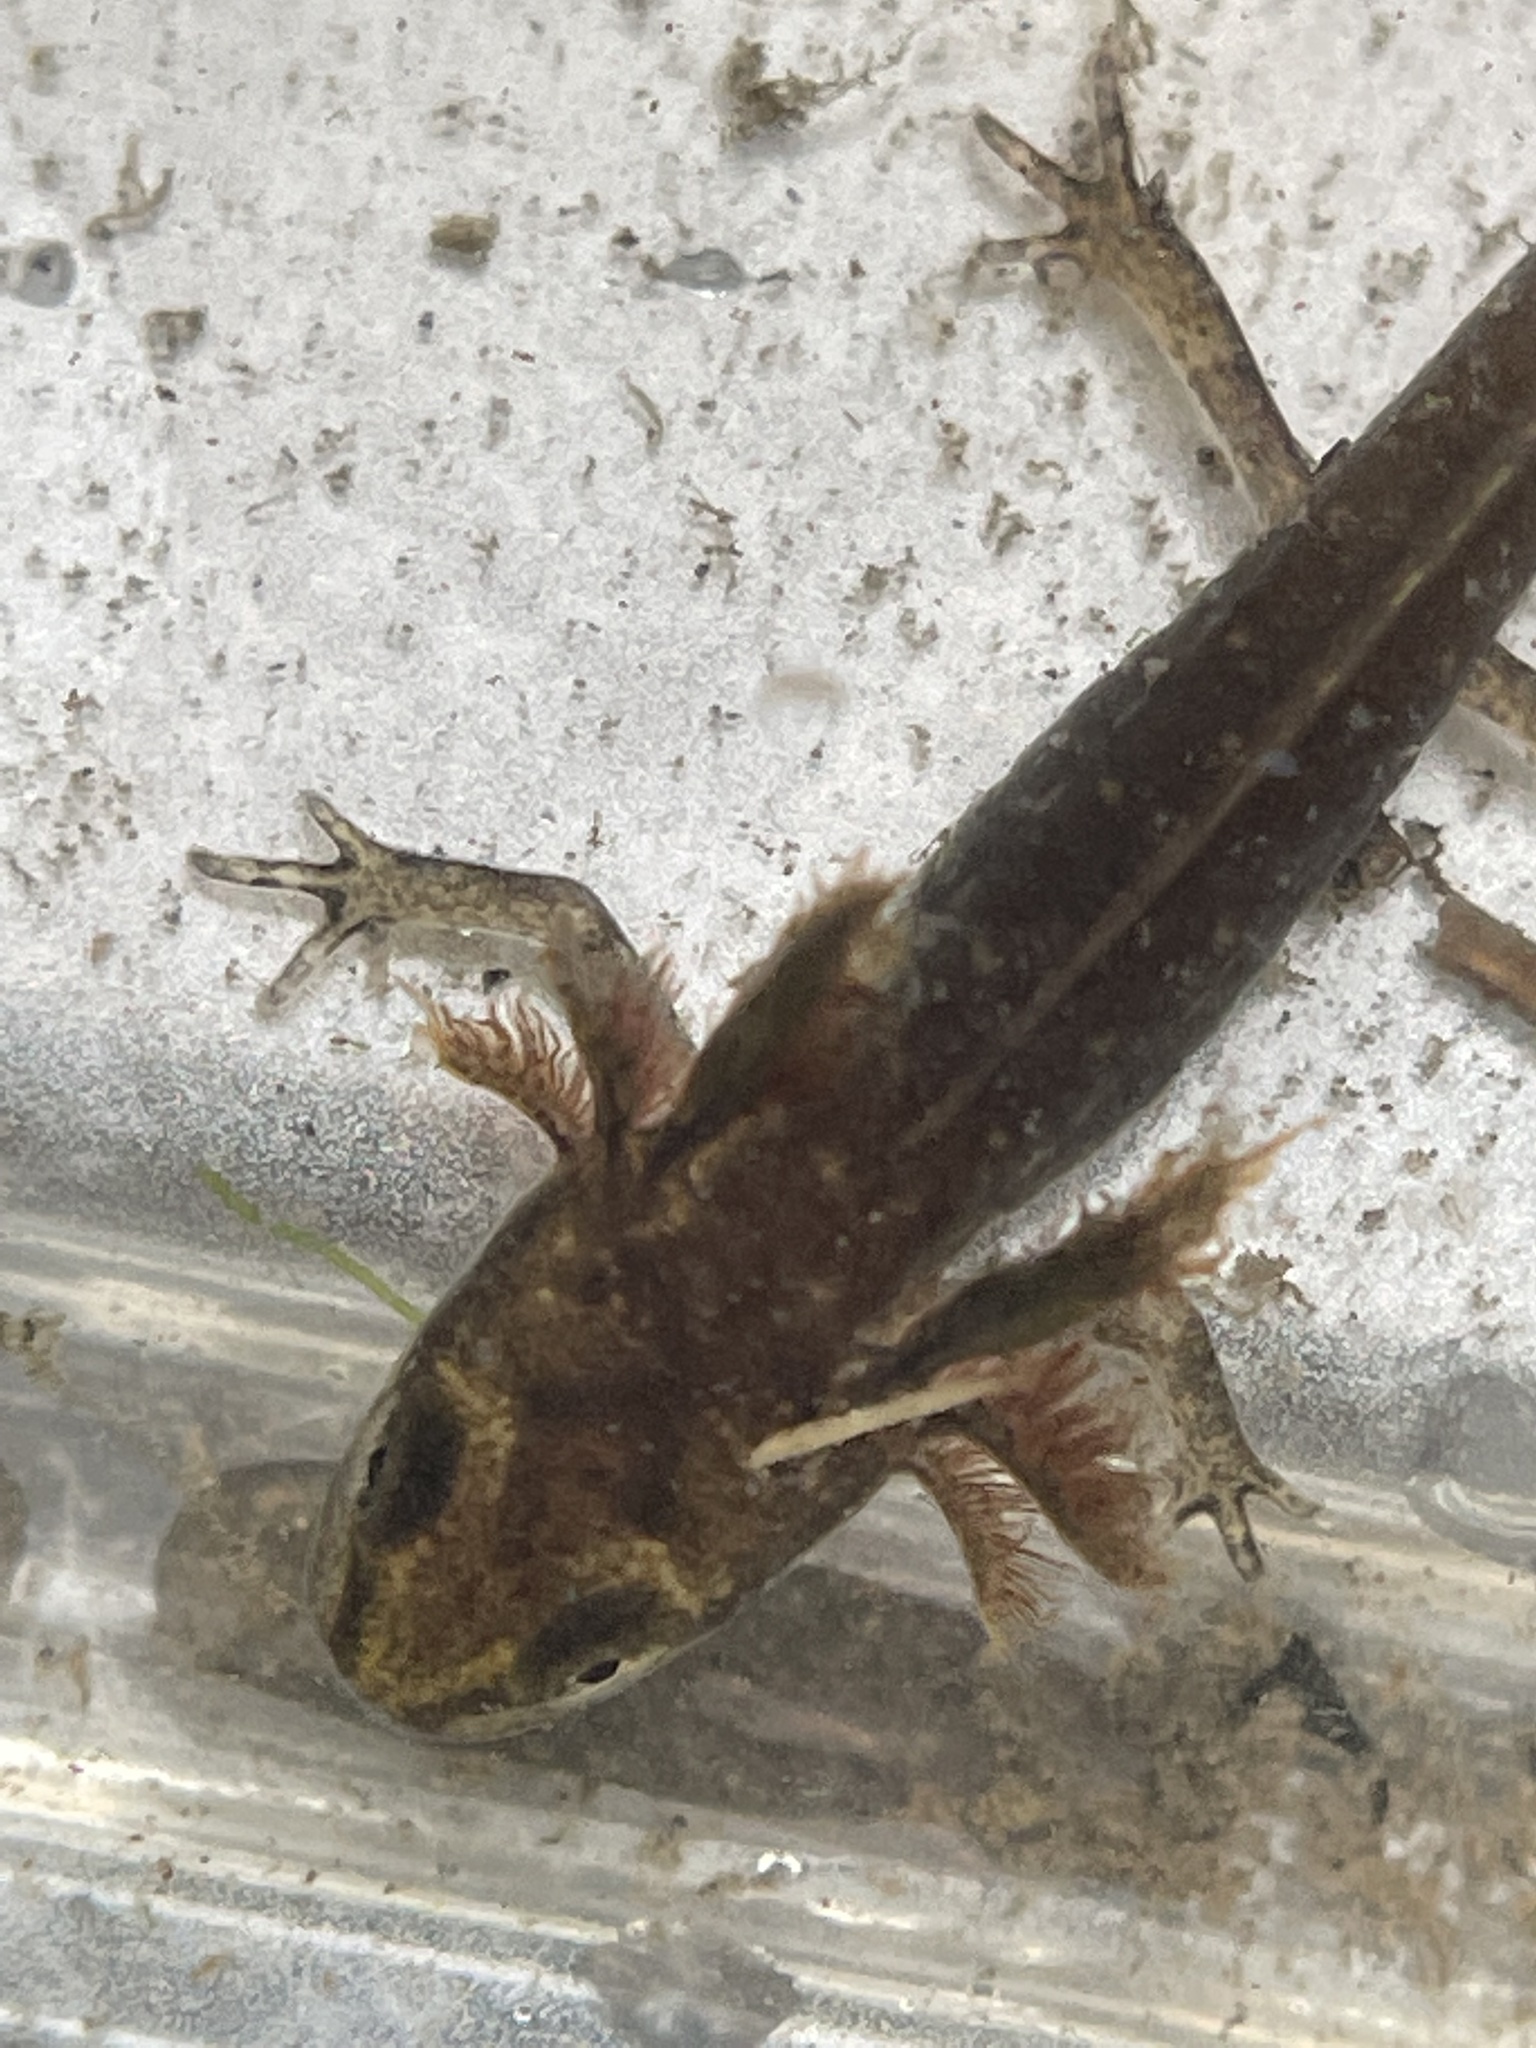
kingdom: Animalia
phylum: Chordata
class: Amphibia
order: Caudata
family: Salamandridae
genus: Notophthalmus
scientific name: Notophthalmus viridescens
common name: Eastern newt
